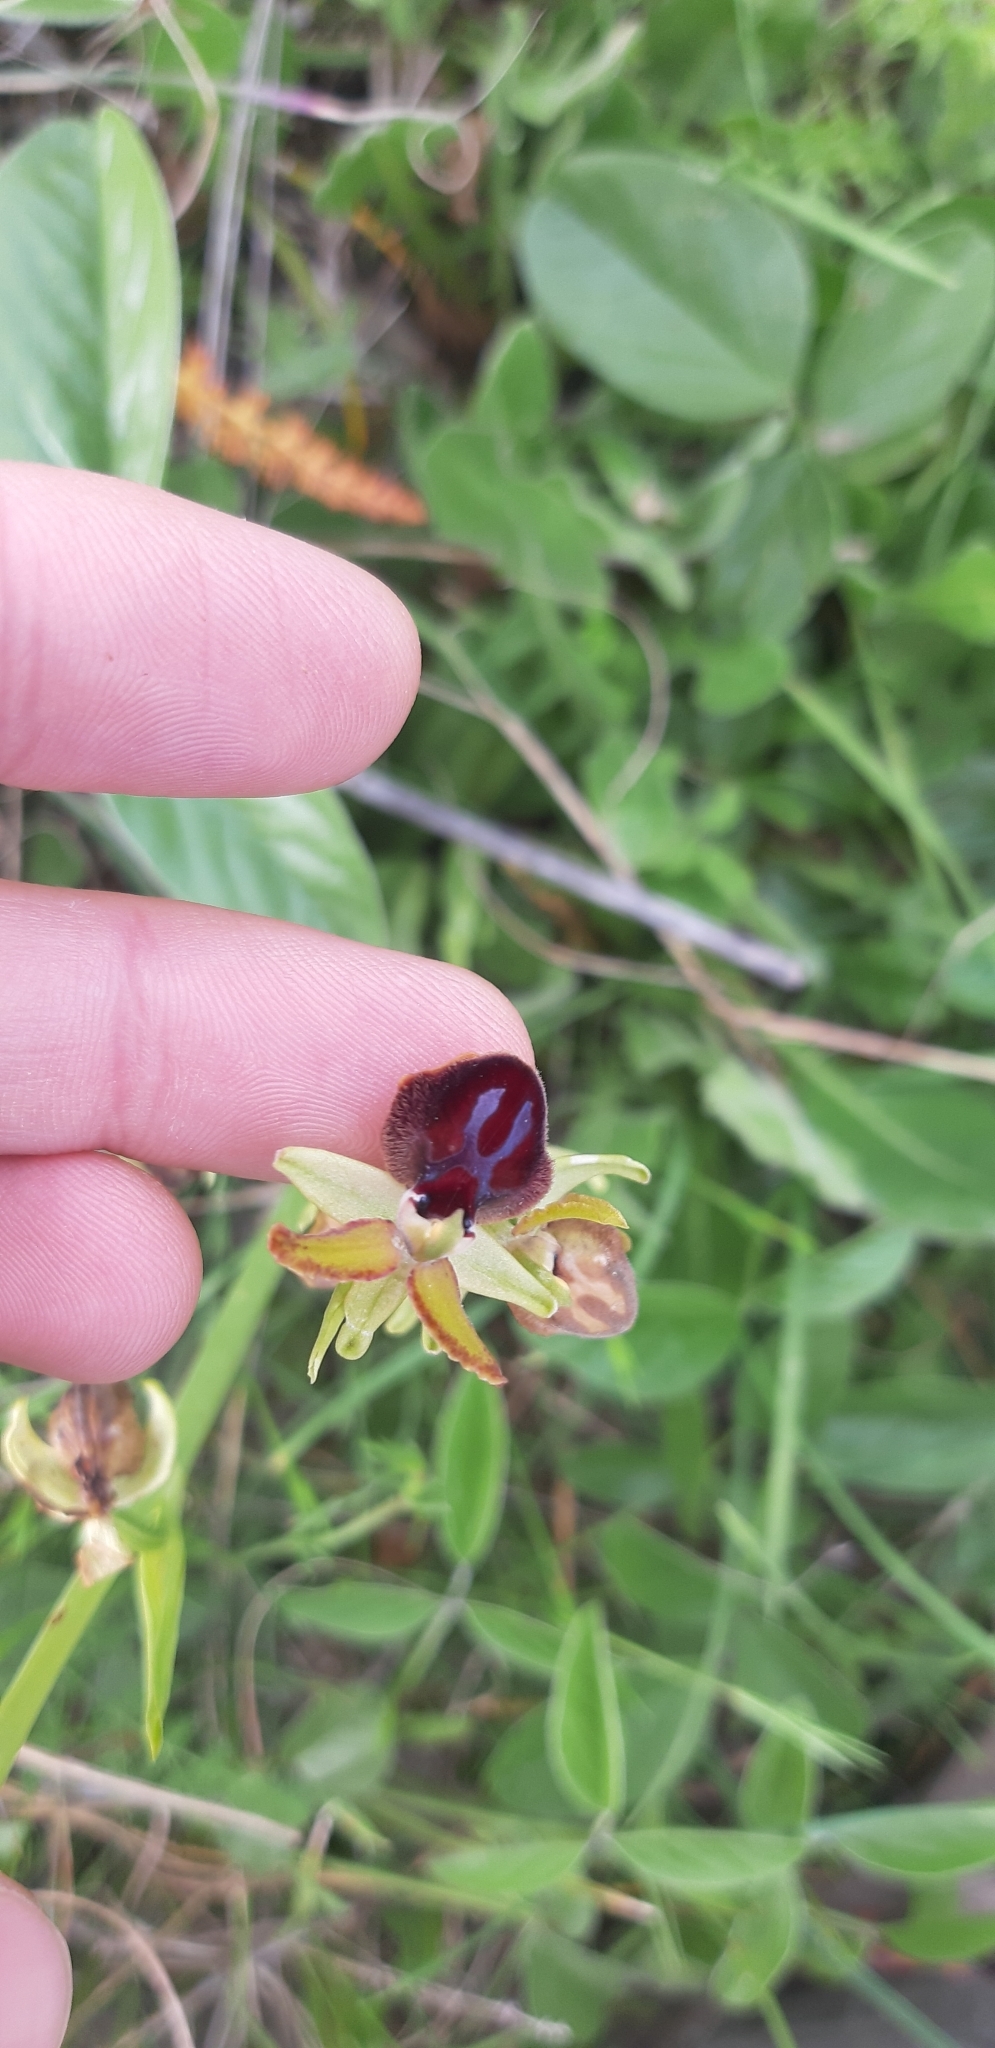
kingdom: Plantae
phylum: Tracheophyta
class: Liliopsida
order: Asparagales
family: Orchidaceae
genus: Ophrys
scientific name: Ophrys sphegodes
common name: Early spider-orchid
